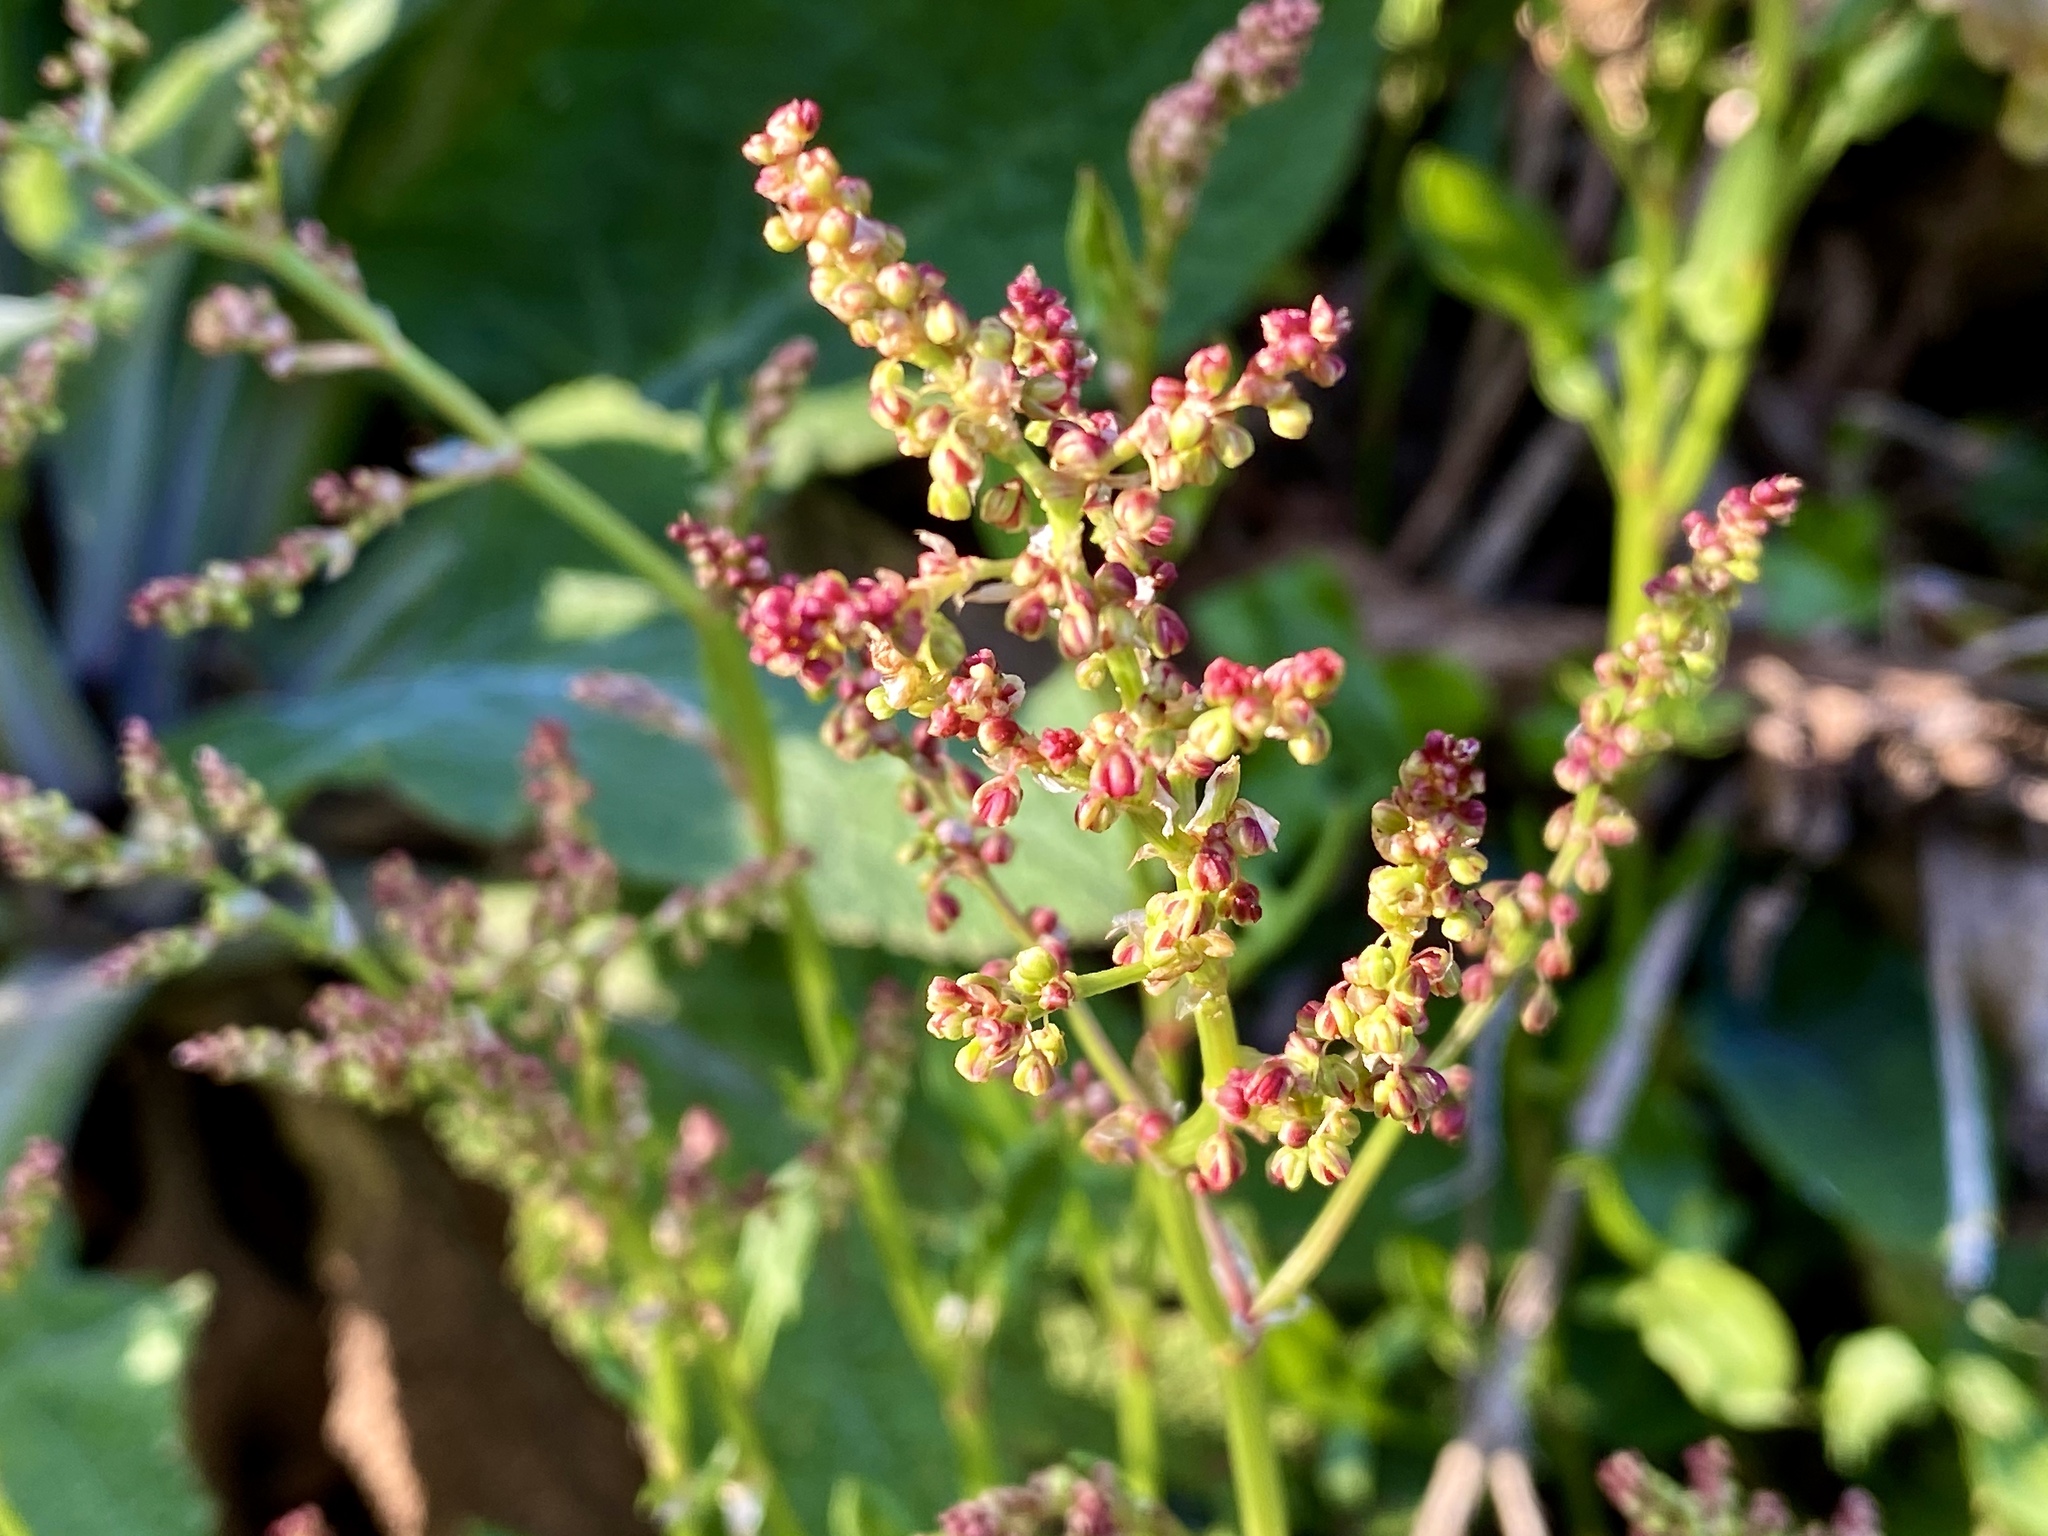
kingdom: Plantae
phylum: Tracheophyta
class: Magnoliopsida
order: Caryophyllales
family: Polygonaceae
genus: Rumex
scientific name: Rumex acetosella
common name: Common sheep sorrel
